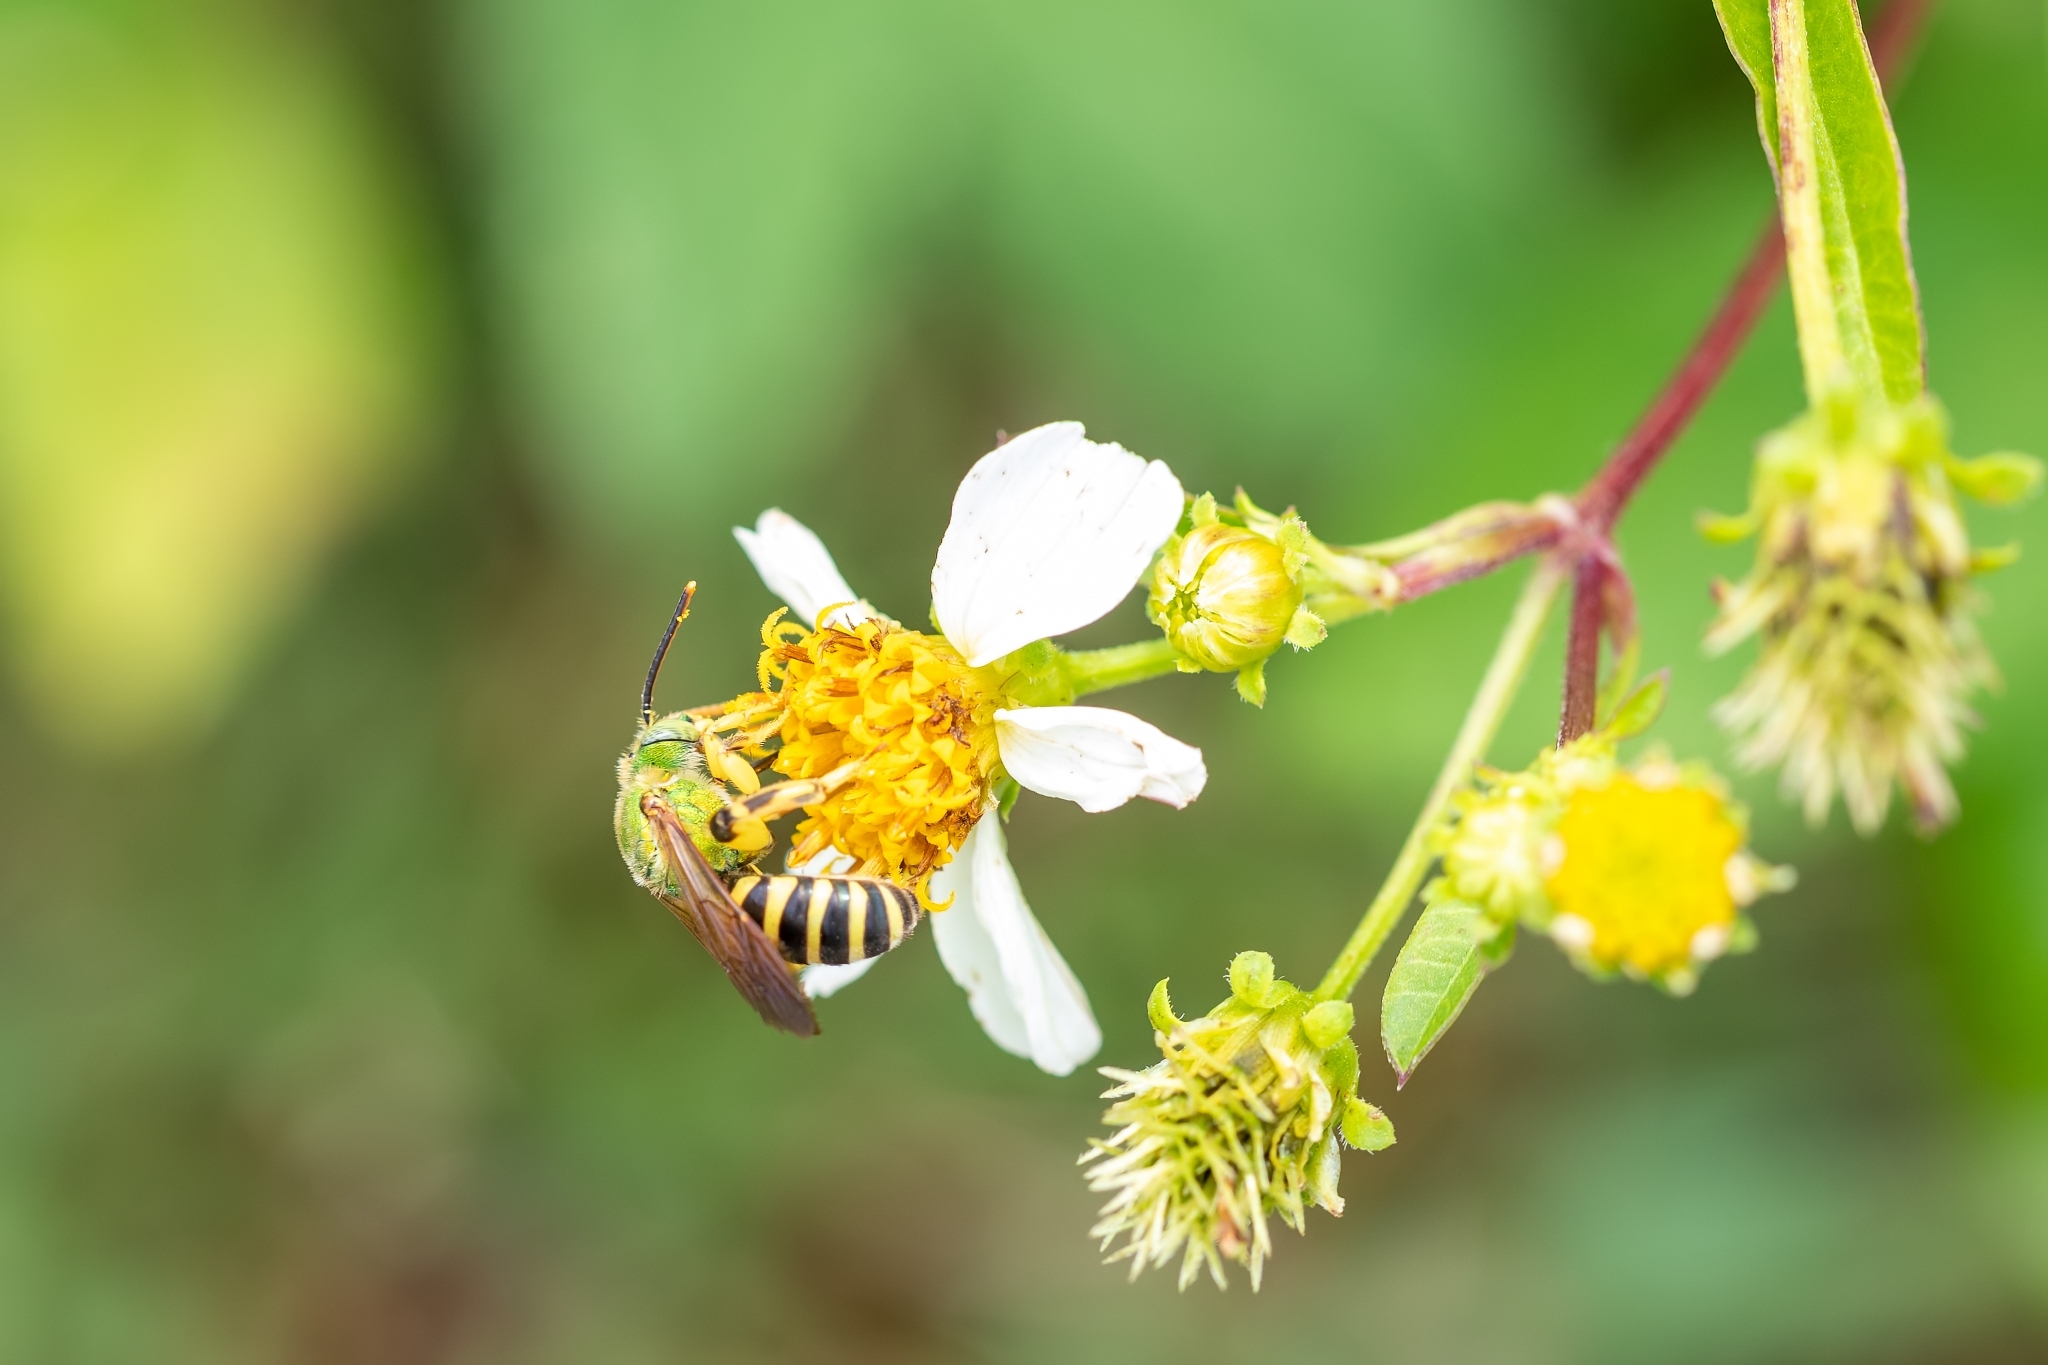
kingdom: Animalia
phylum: Arthropoda
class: Insecta
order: Hymenoptera
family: Halictidae
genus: Agapostemon
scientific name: Agapostemon splendens
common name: Brown-winged striped sweat bee
